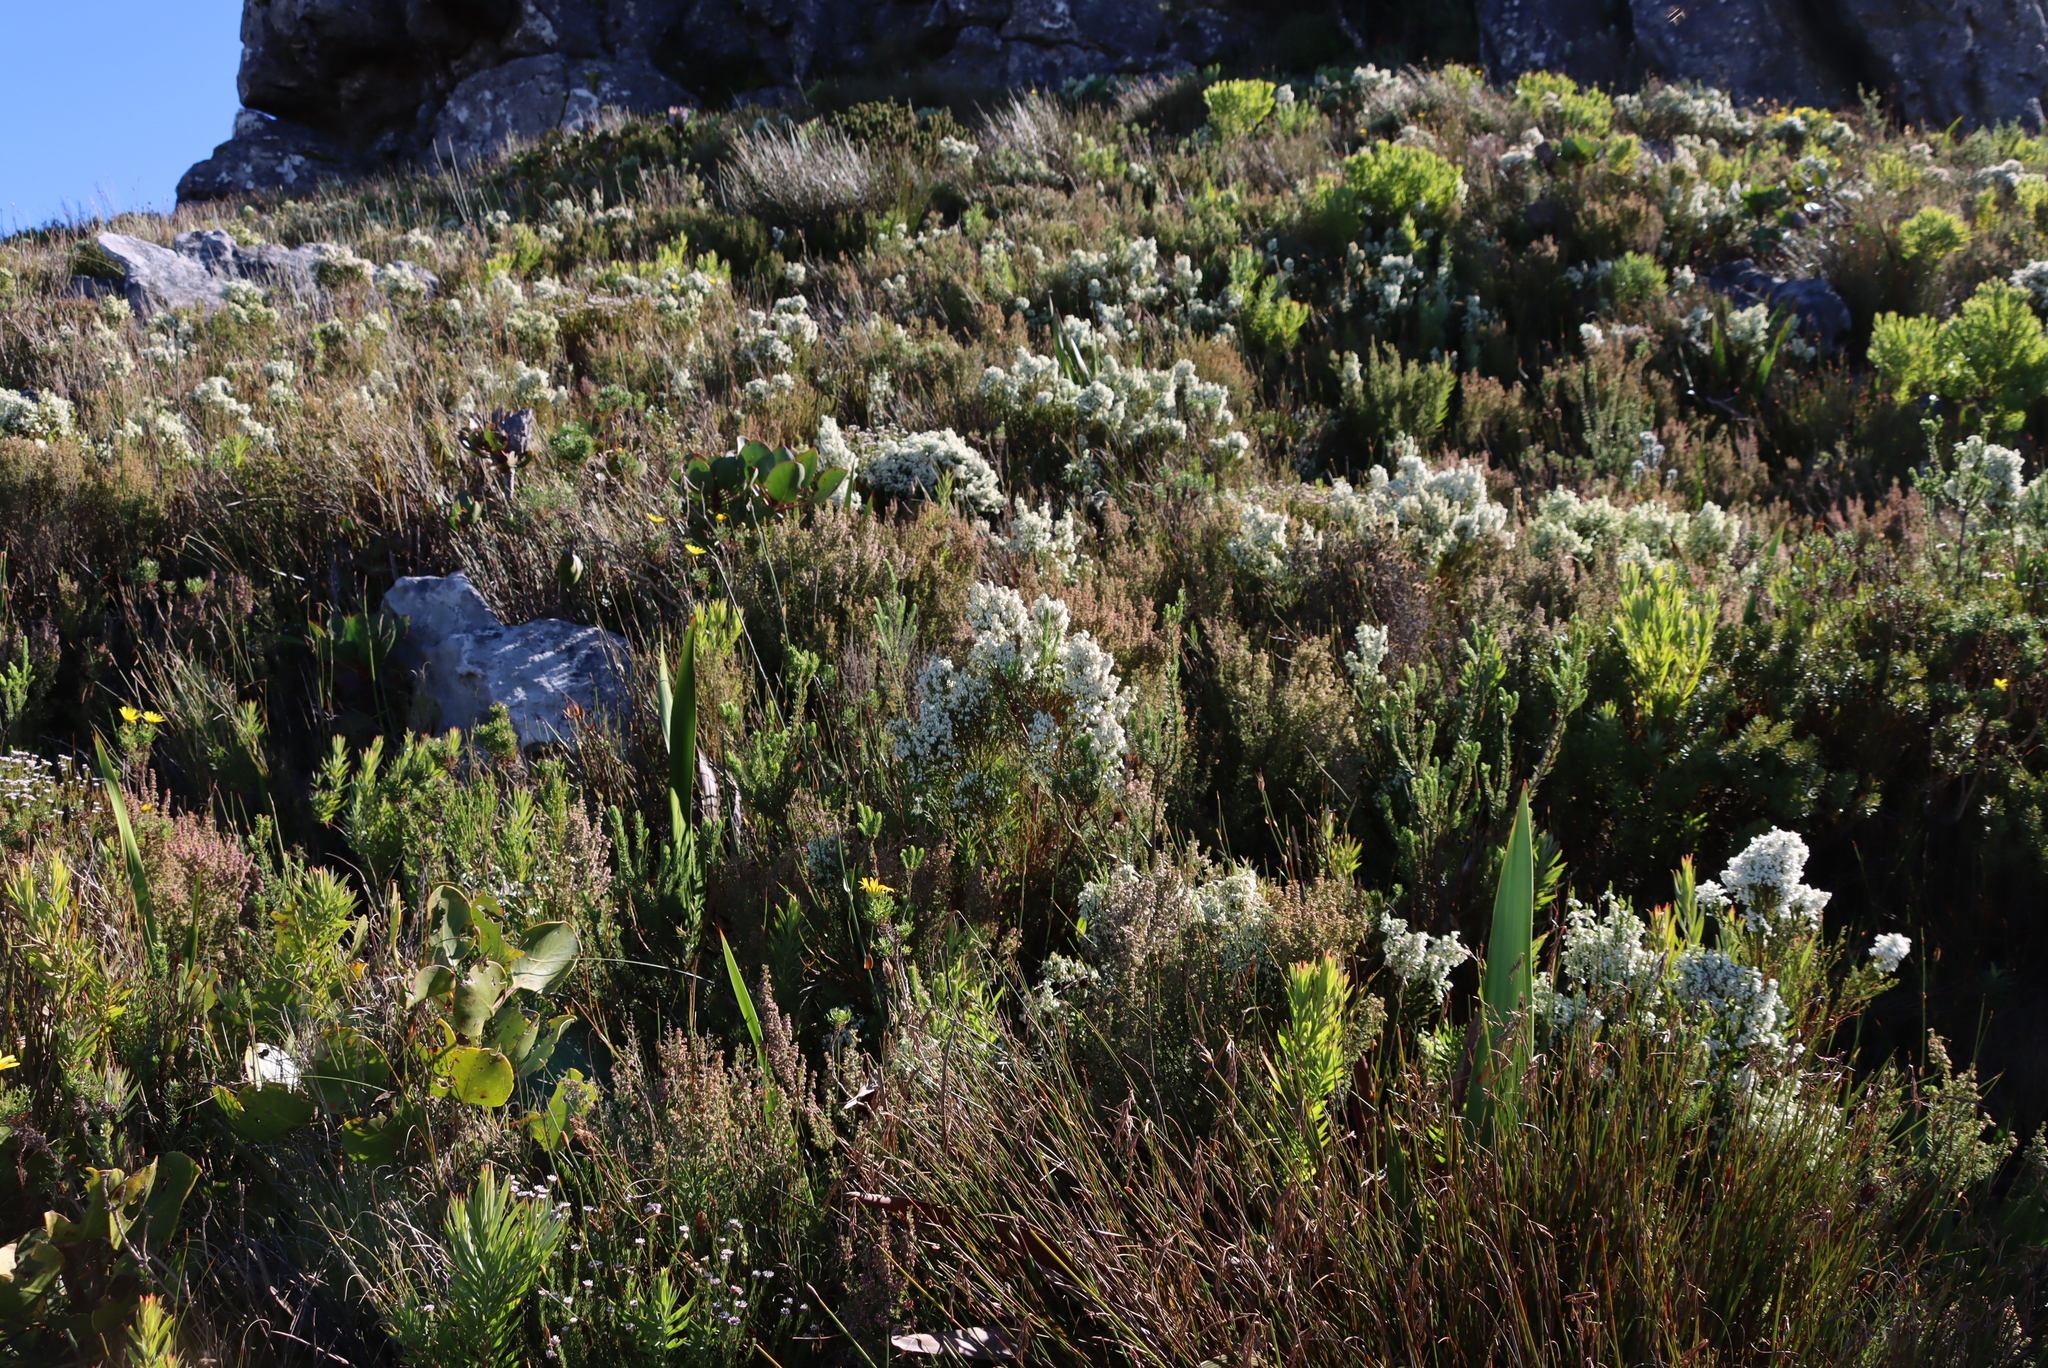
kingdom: Plantae
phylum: Tracheophyta
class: Magnoliopsida
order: Ericales
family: Ericaceae
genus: Erica
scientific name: Erica lutea
